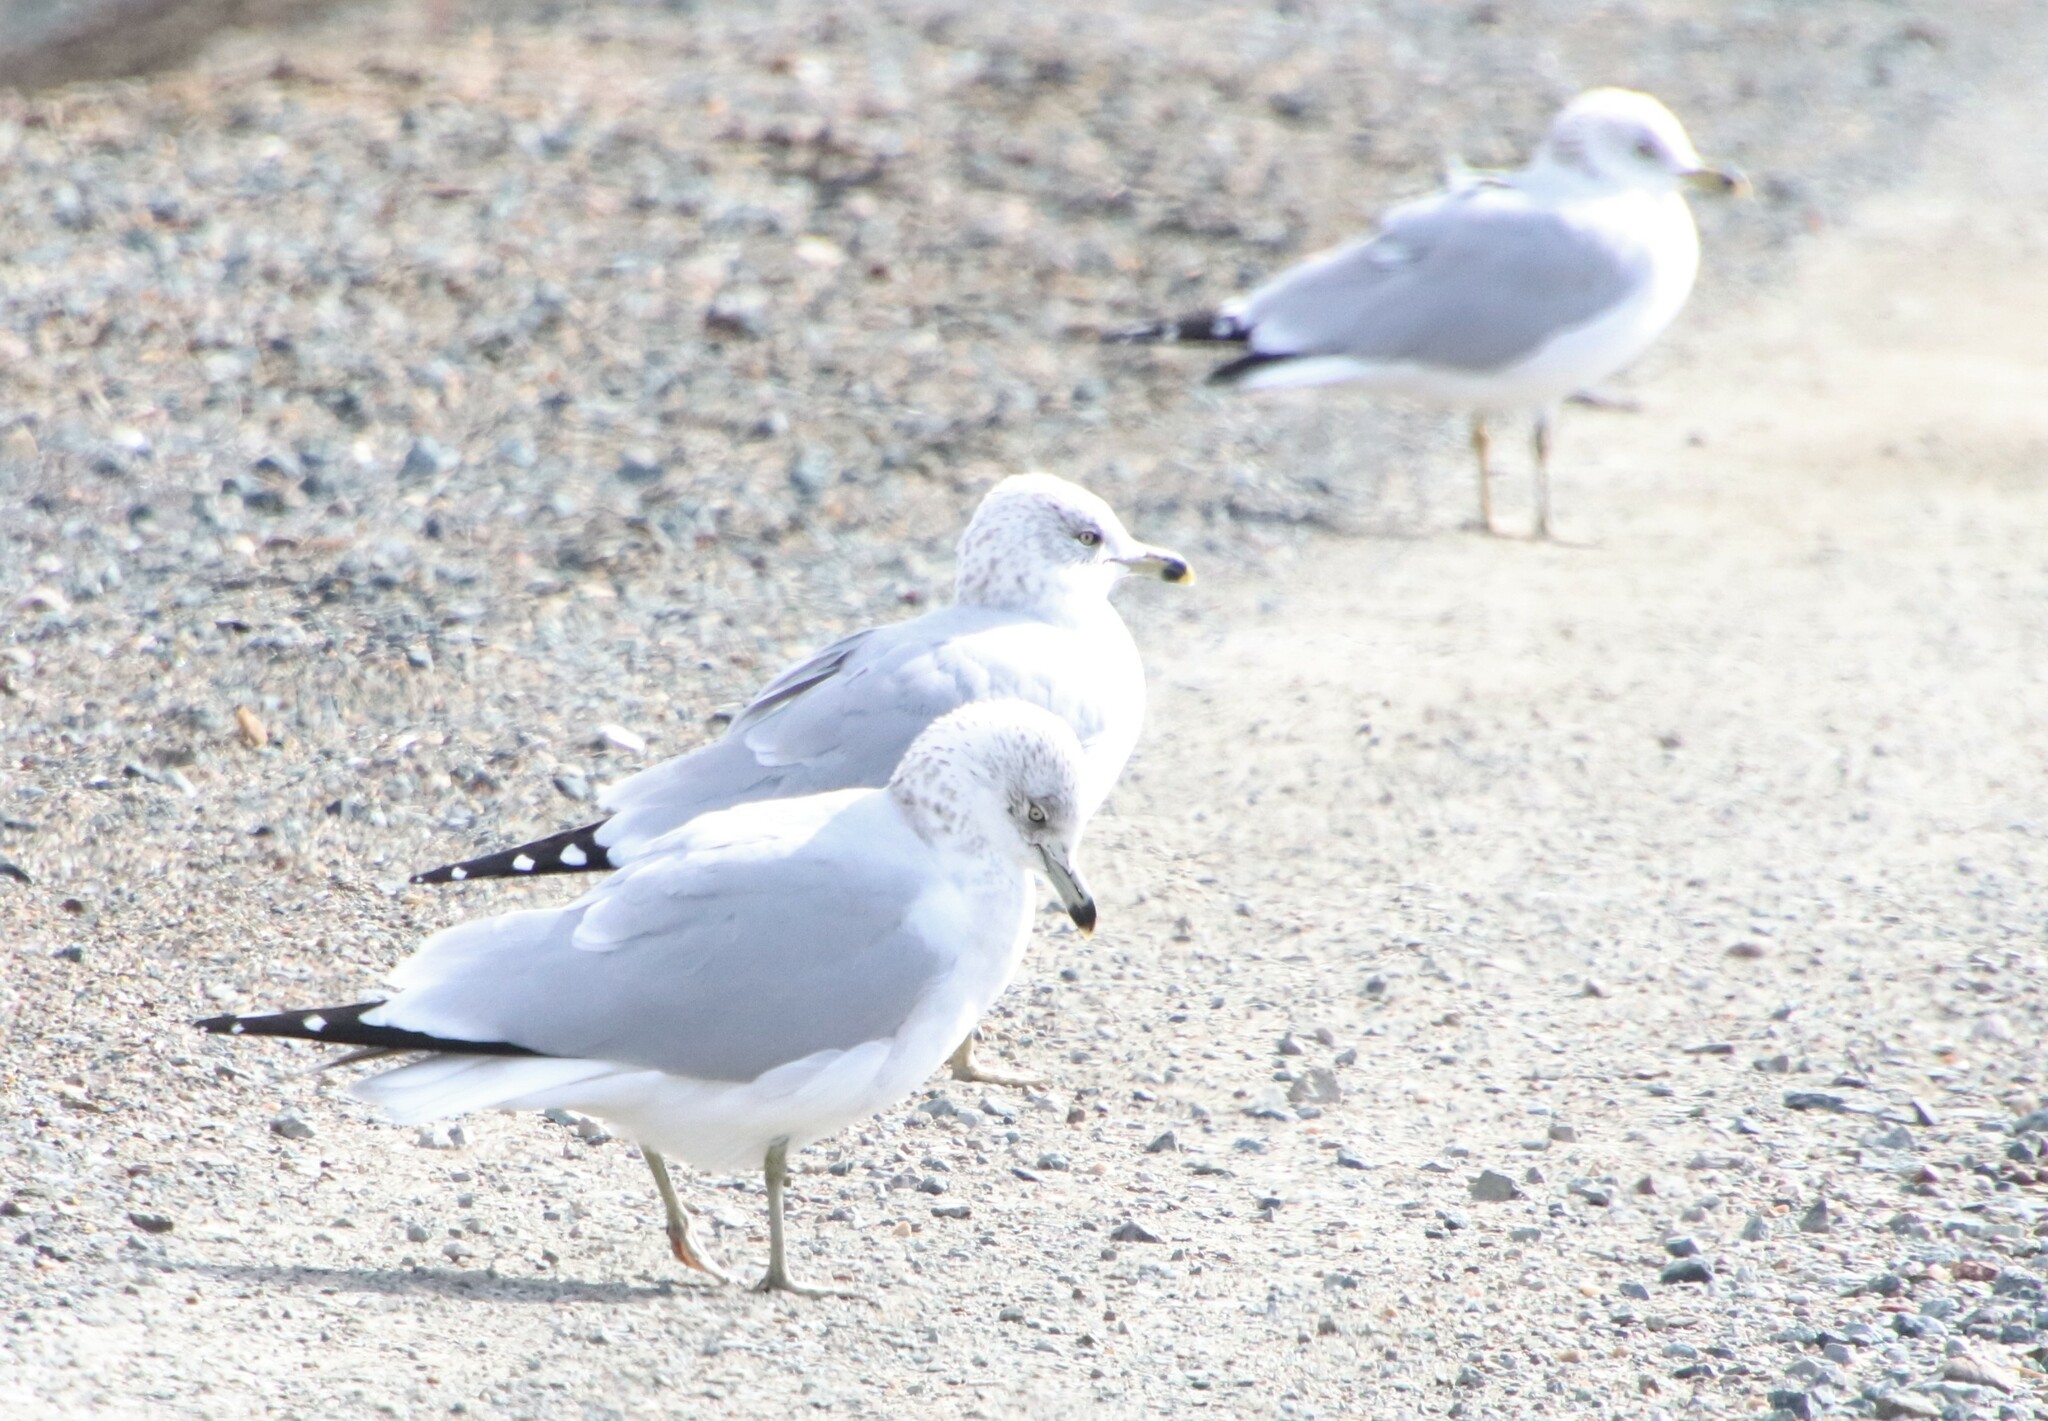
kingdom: Animalia
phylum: Chordata
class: Aves
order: Charadriiformes
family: Laridae
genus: Larus
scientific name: Larus delawarensis
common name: Ring-billed gull
